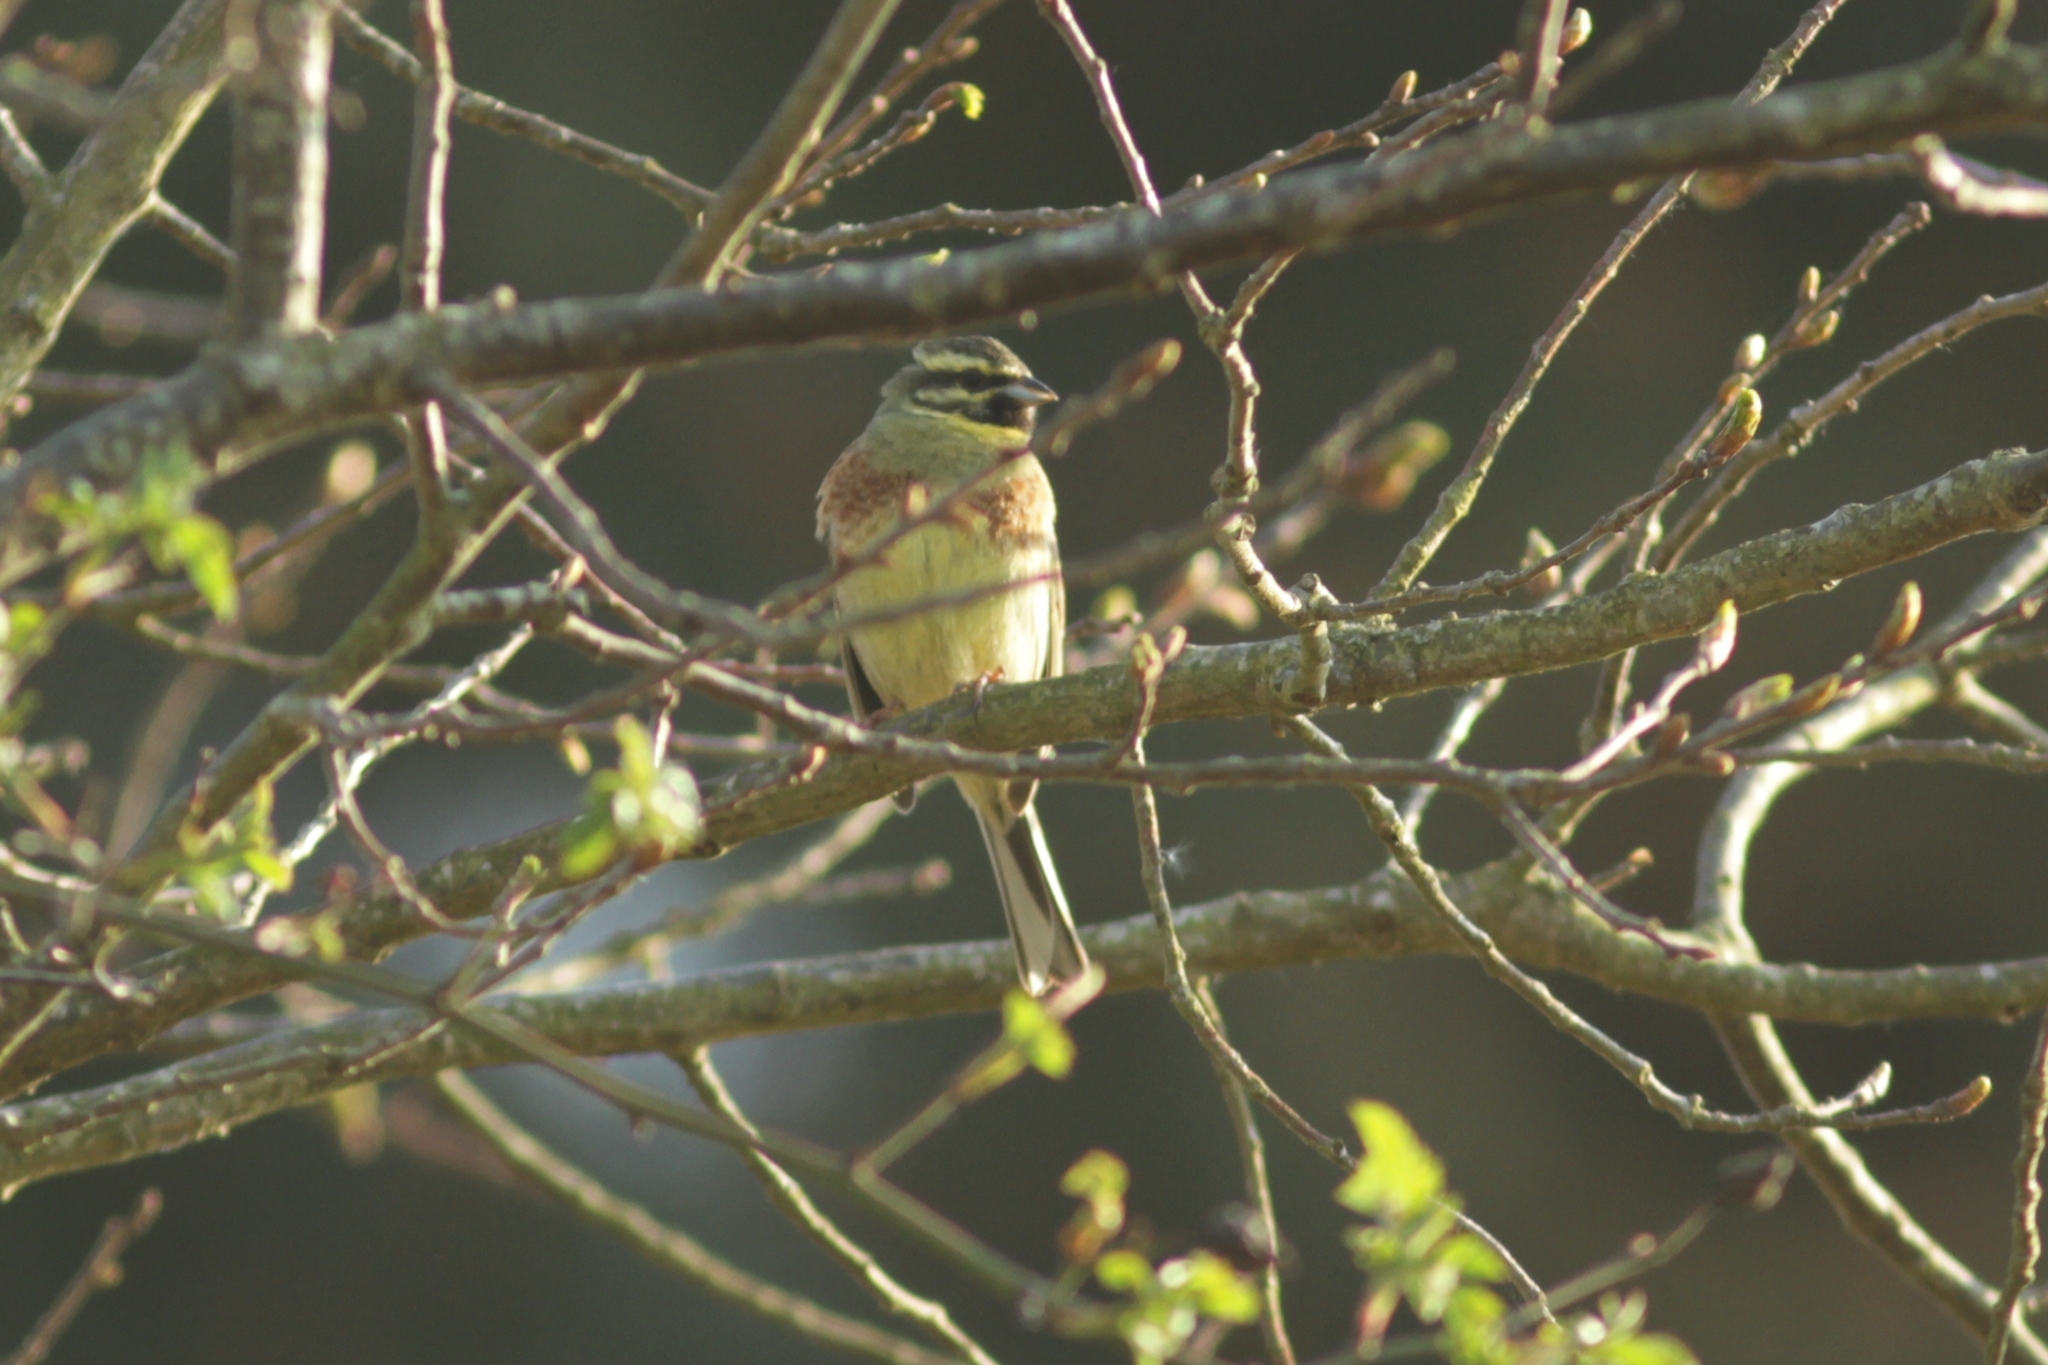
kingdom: Animalia
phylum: Chordata
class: Aves
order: Passeriformes
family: Emberizidae
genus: Emberiza
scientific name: Emberiza cirlus
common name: Cirl bunting
